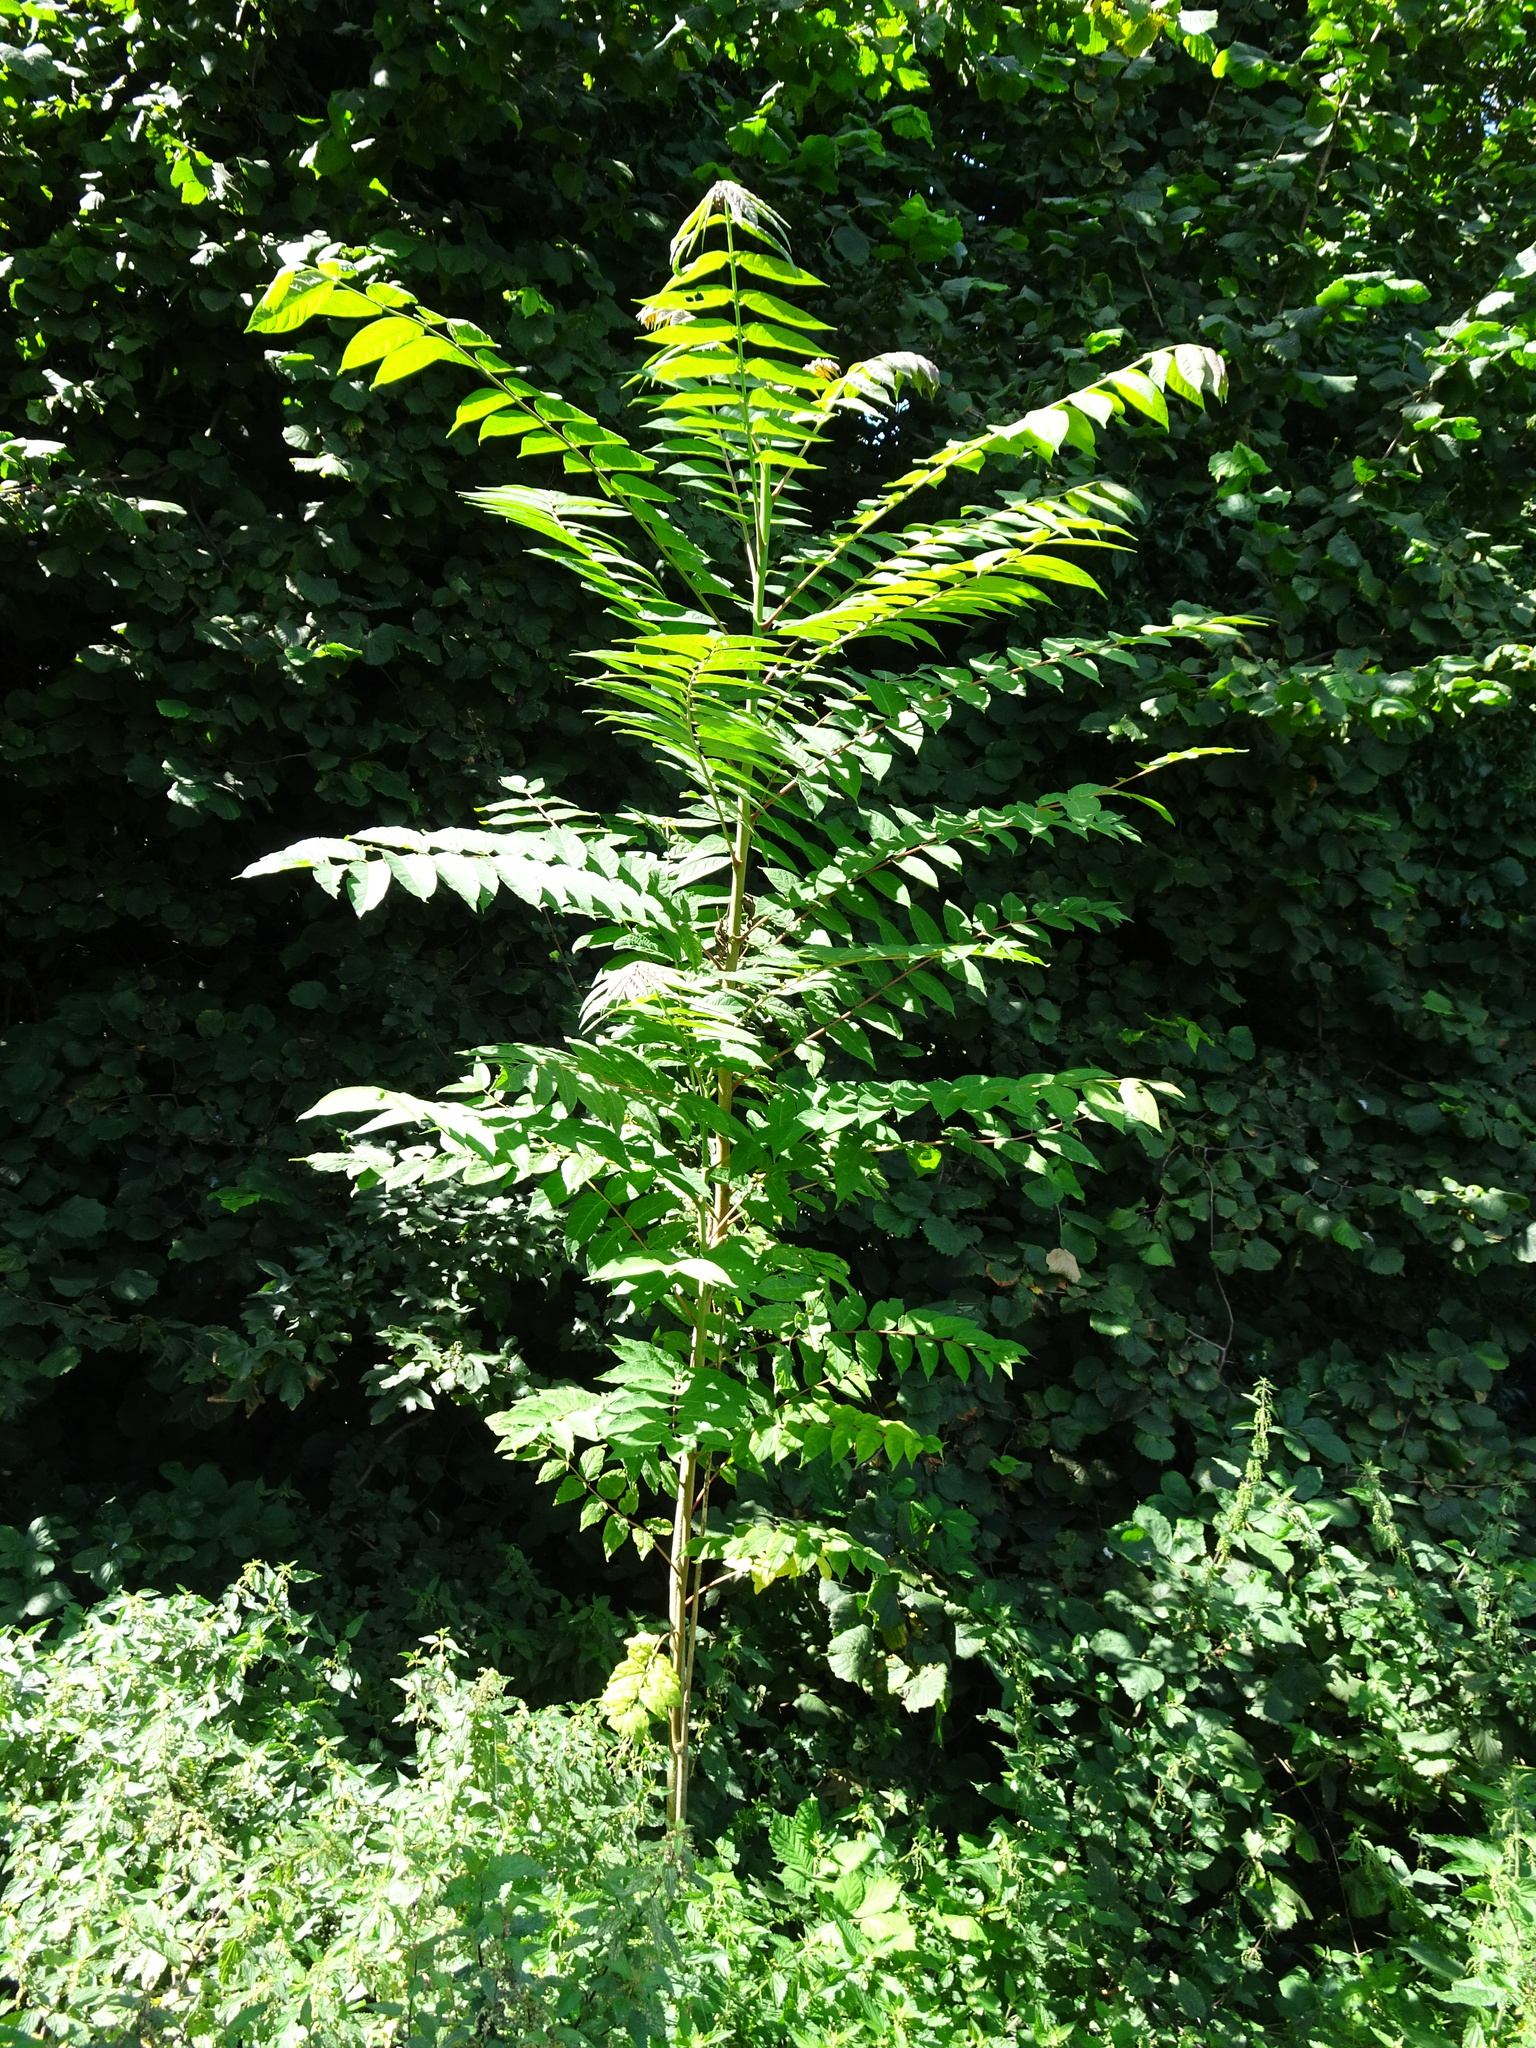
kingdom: Plantae
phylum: Tracheophyta
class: Magnoliopsida
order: Sapindales
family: Simaroubaceae
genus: Ailanthus
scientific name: Ailanthus altissima
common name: Tree-of-heaven
